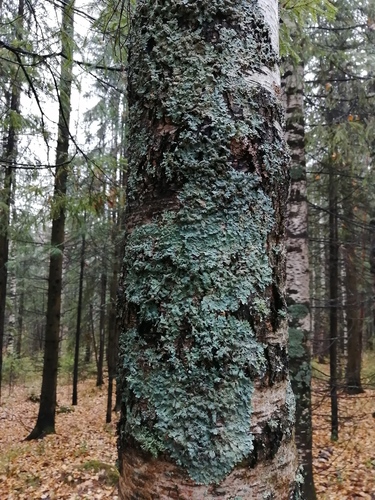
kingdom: Fungi
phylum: Ascomycota
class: Lecanoromycetes
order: Lecanorales
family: Parmeliaceae
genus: Parmelia
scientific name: Parmelia sulcata
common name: Netted shield lichen
